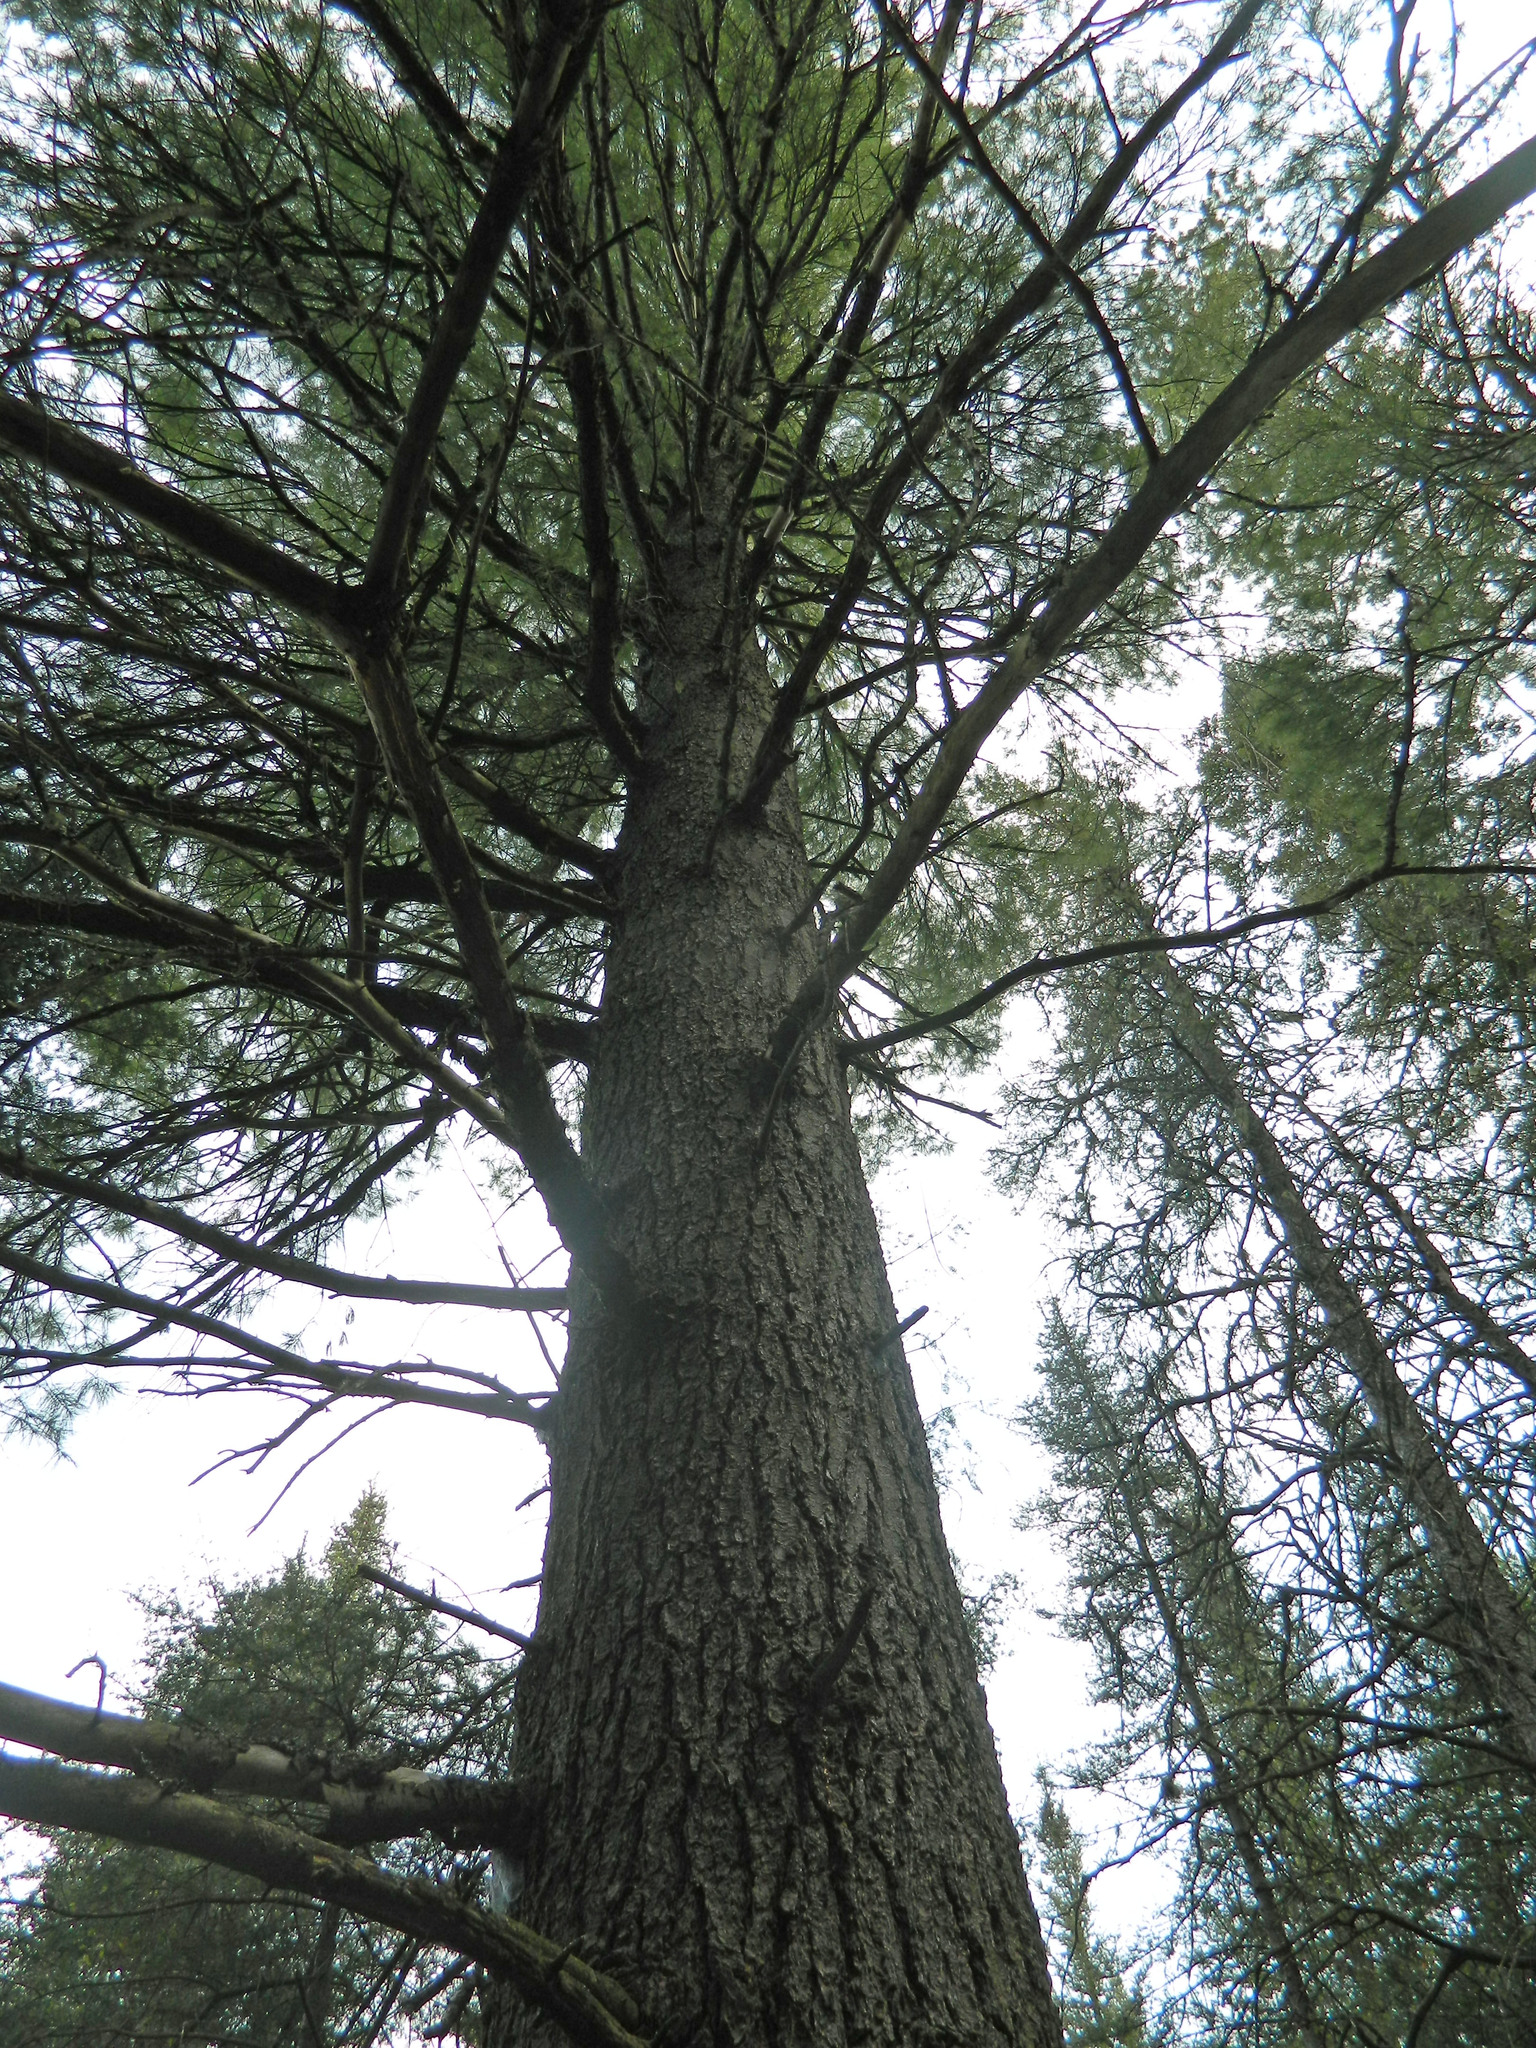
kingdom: Plantae
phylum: Tracheophyta
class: Pinopsida
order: Pinales
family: Pinaceae
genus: Pinus
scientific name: Pinus strobus
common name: Weymouth pine
